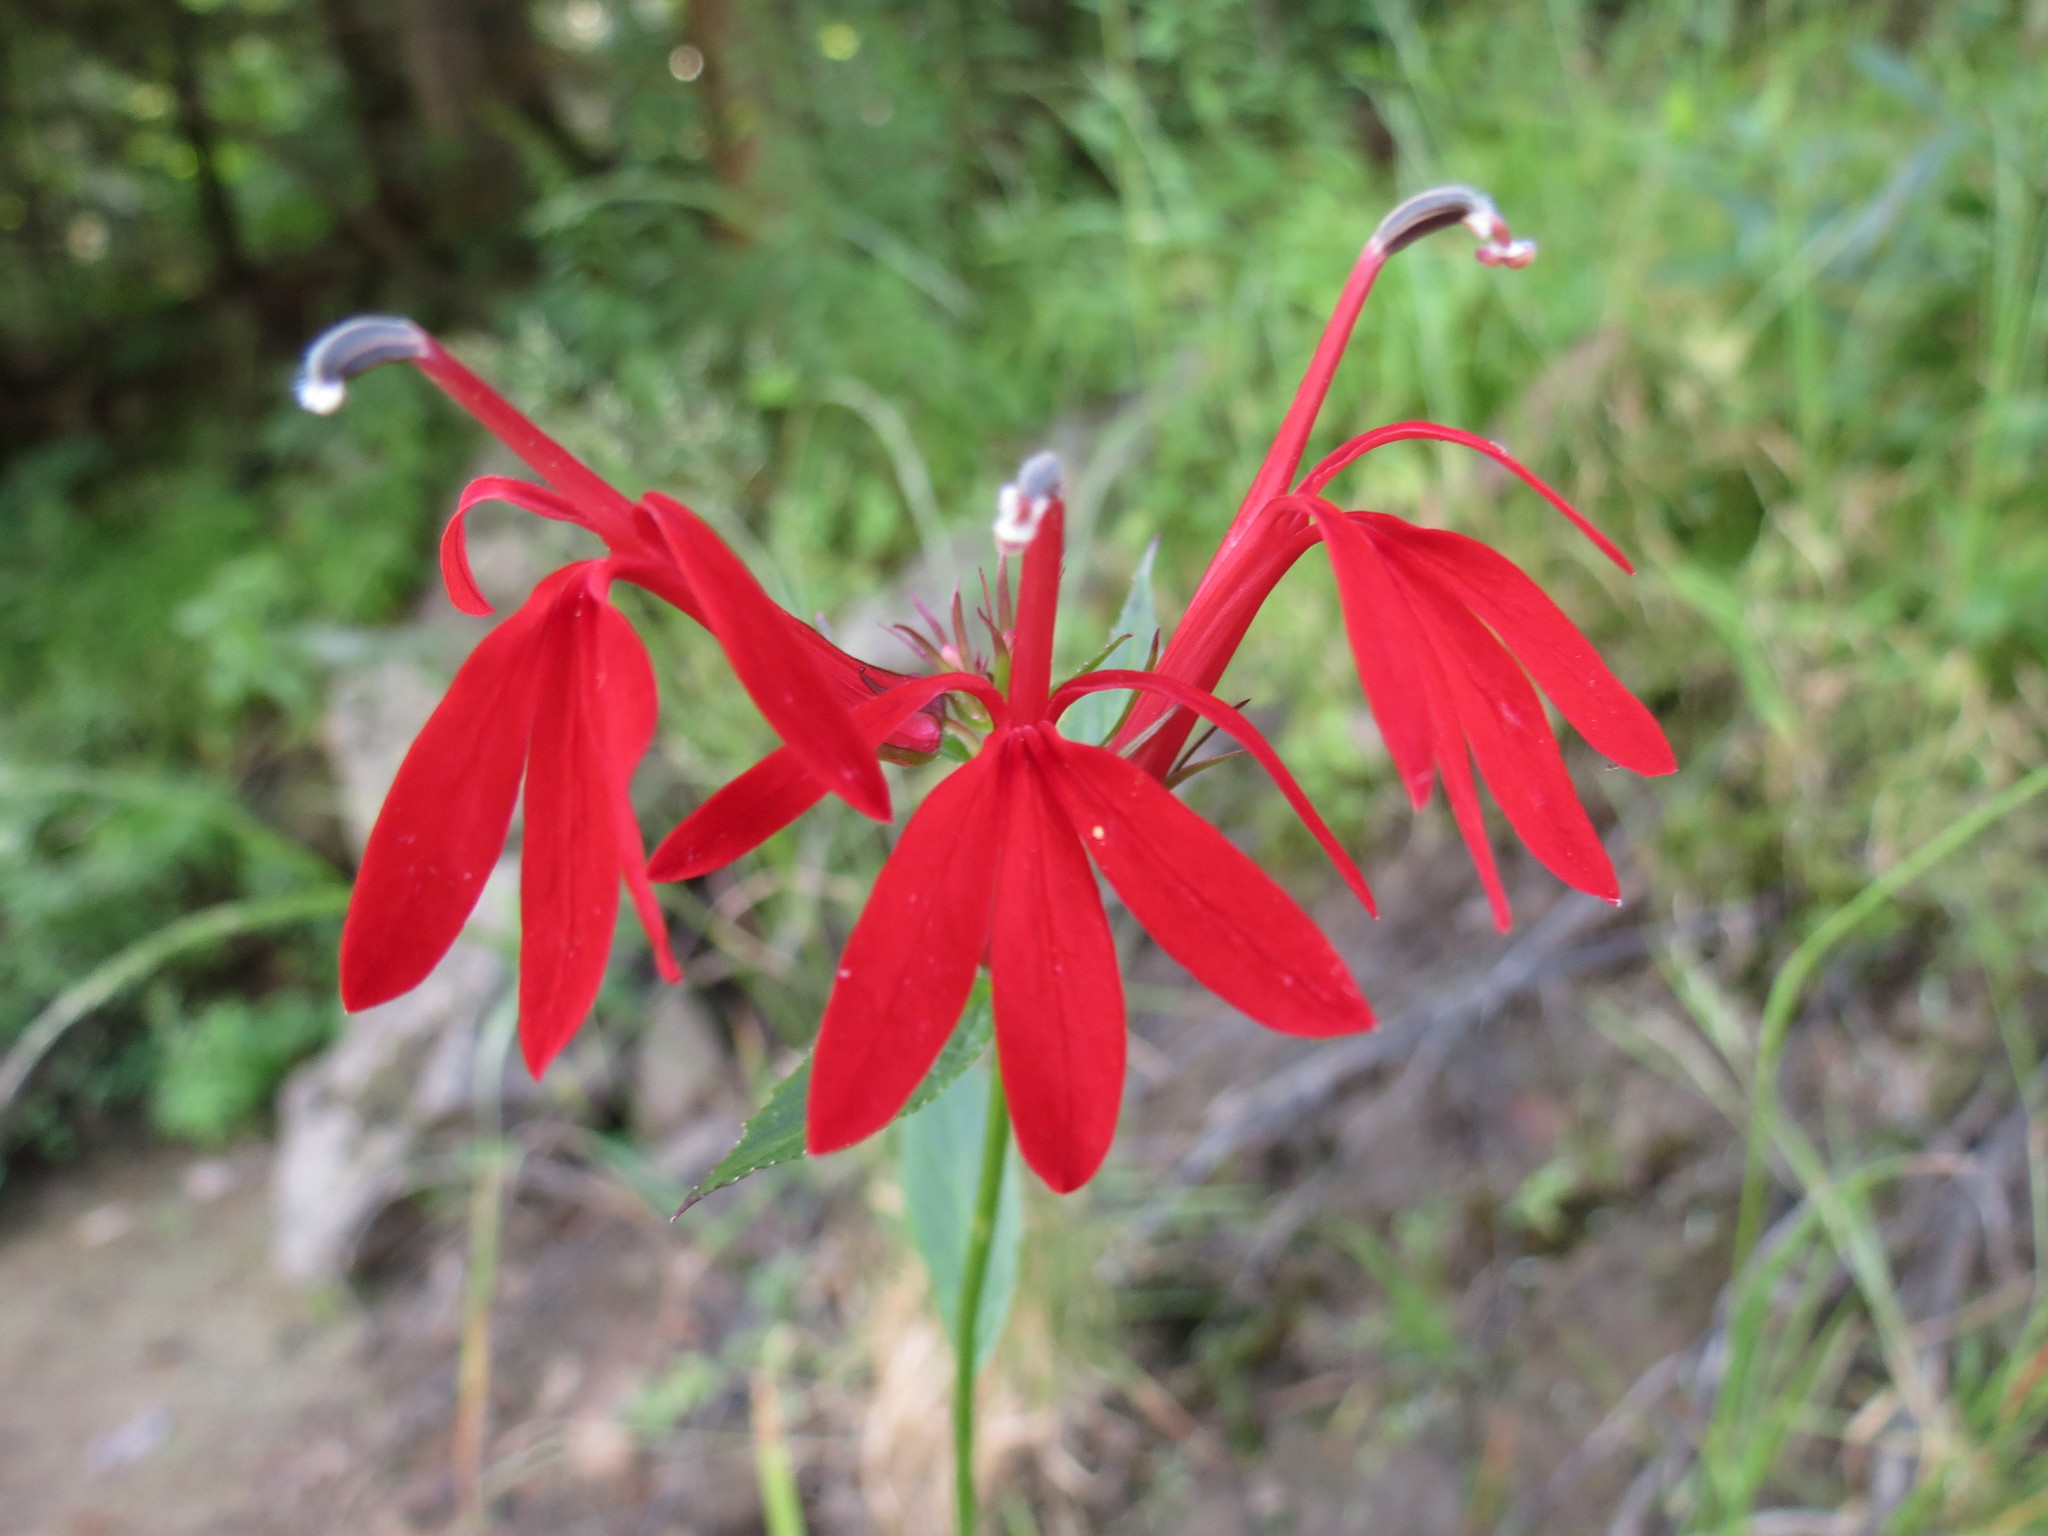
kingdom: Plantae
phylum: Tracheophyta
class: Magnoliopsida
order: Asterales
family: Campanulaceae
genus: Lobelia
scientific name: Lobelia cardinalis
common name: Cardinal flower
